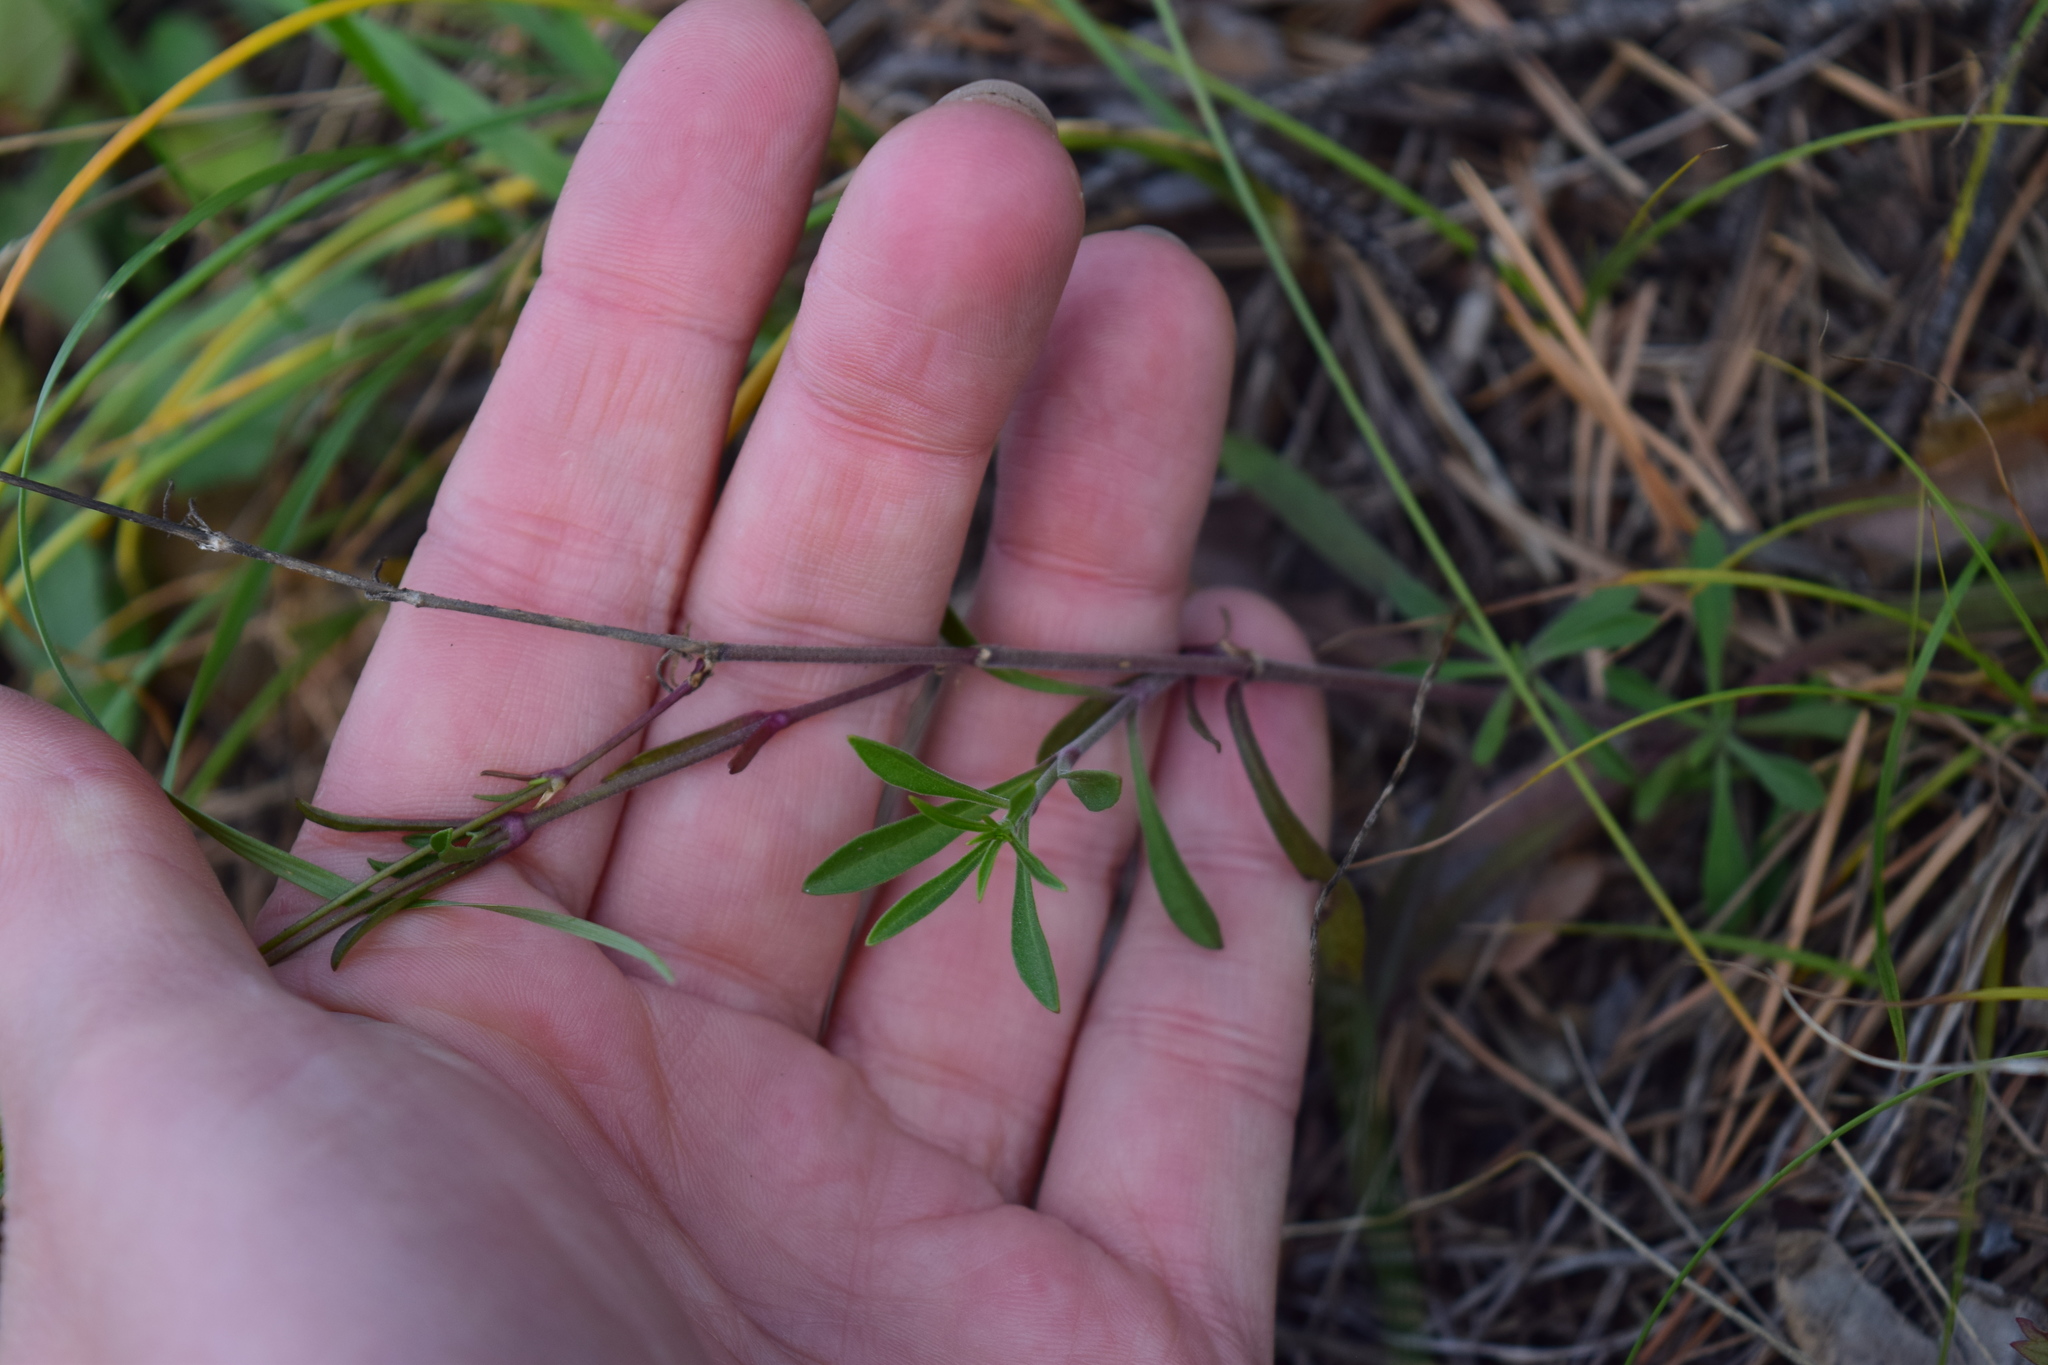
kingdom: Plantae
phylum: Tracheophyta
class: Magnoliopsida
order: Caryophyllales
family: Caryophyllaceae
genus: Silene
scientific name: Silene klokovii
